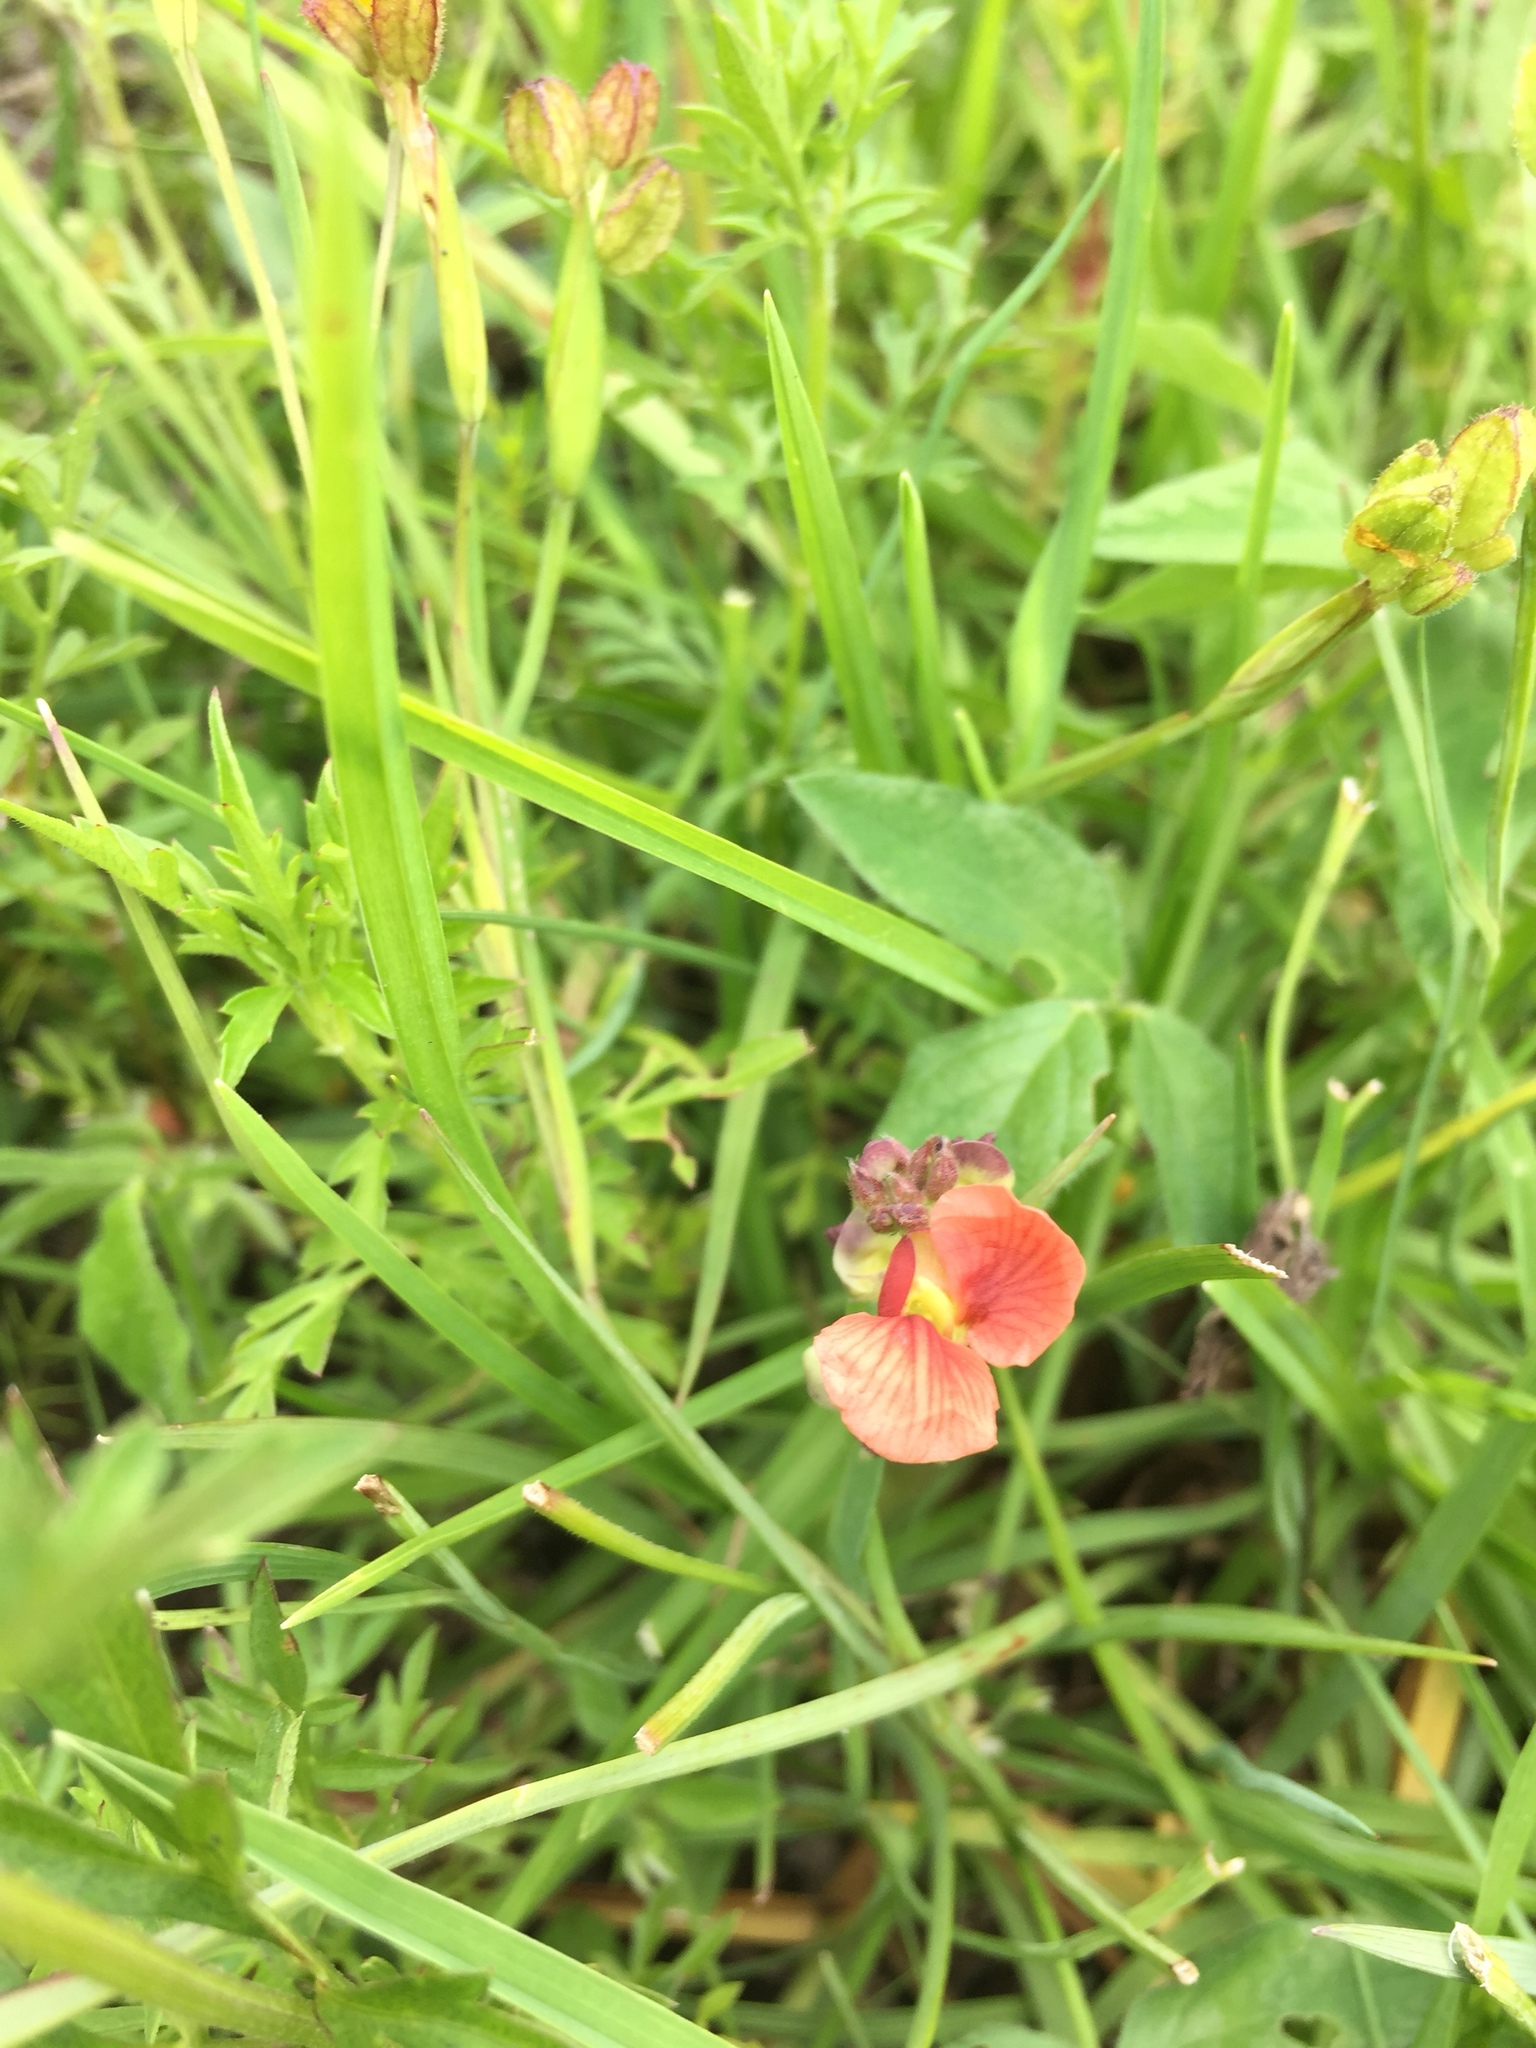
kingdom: Plantae
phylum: Tracheophyta
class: Magnoliopsida
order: Fabales
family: Fabaceae
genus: Macroptilium
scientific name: Macroptilium gibbosifolium
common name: Variableleaf bushbean
